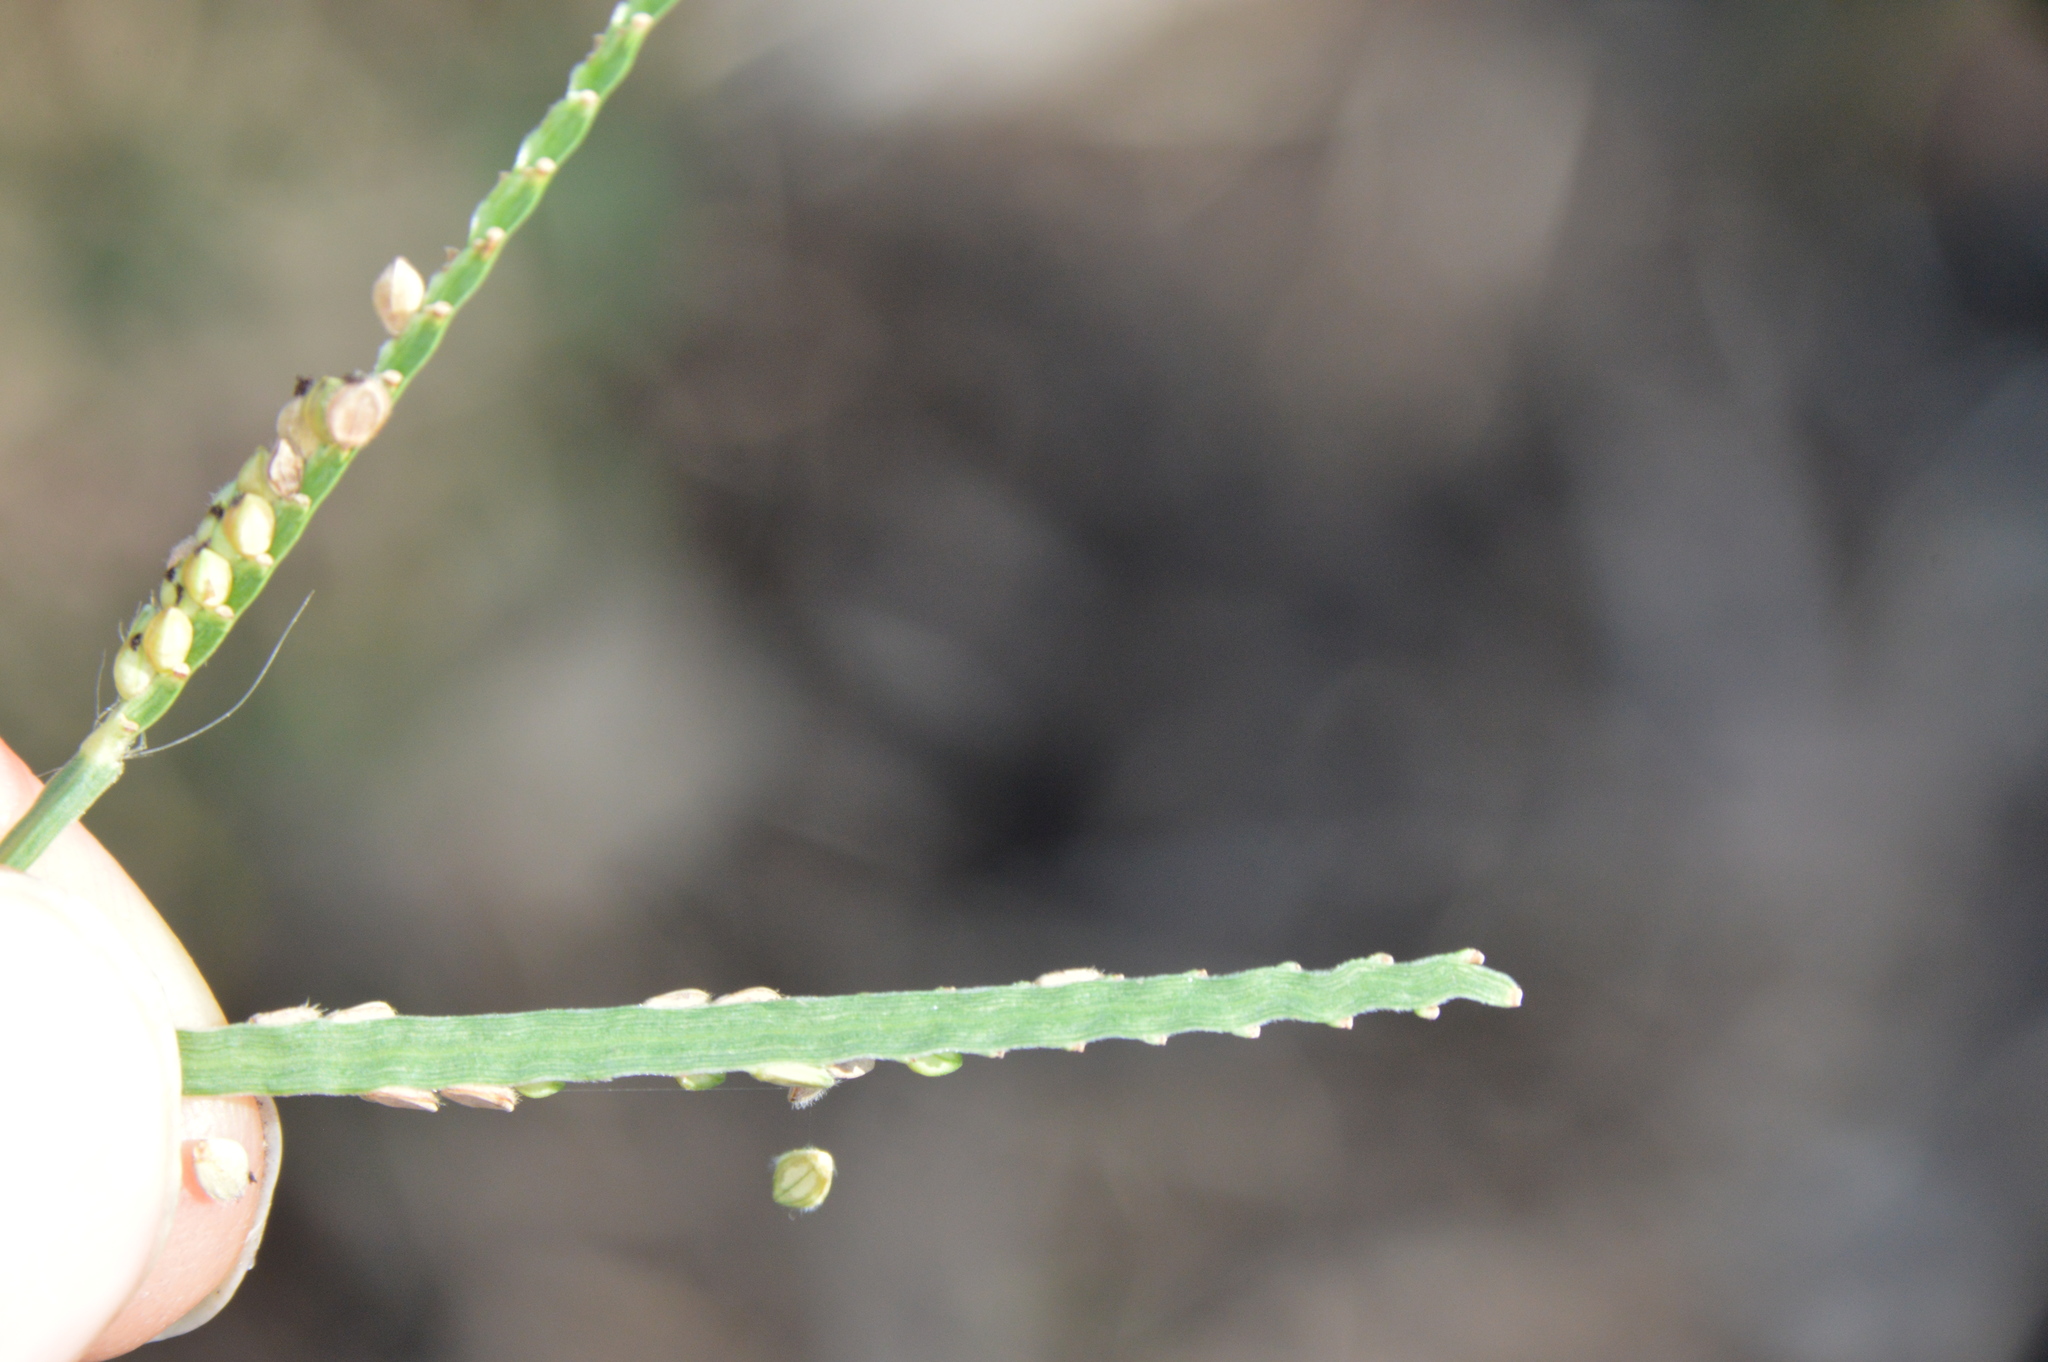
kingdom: Plantae
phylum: Tracheophyta
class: Liliopsida
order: Poales
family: Poaceae
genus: Paspalum
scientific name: Paspalum pubiflorum
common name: Hairy-seed paspalum
